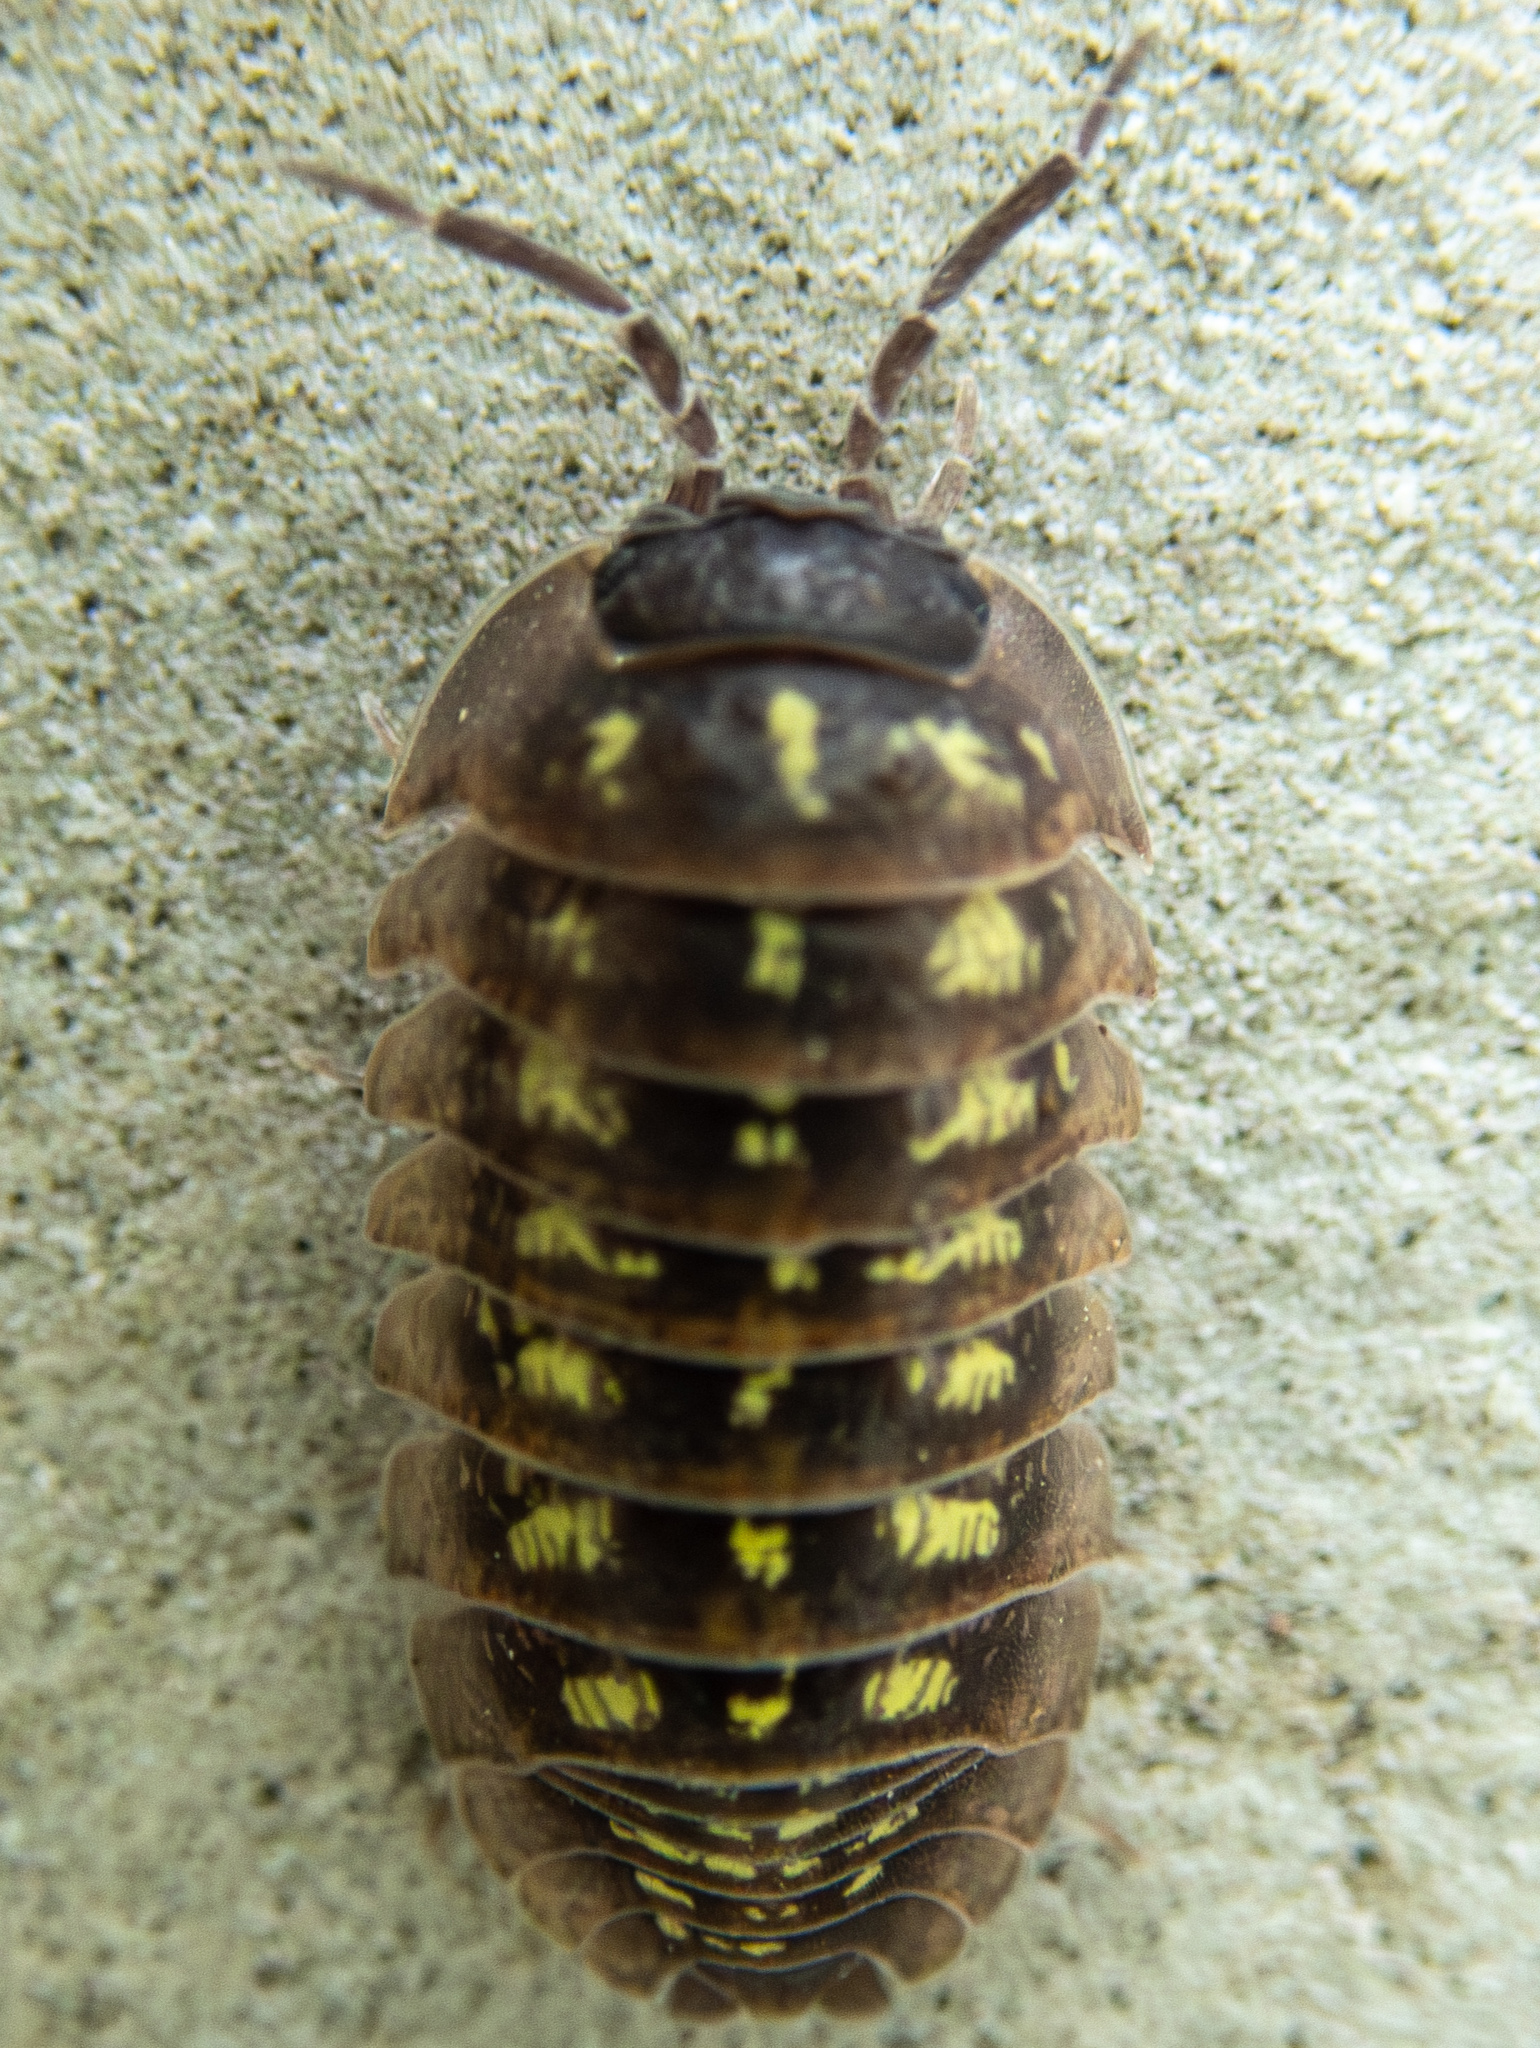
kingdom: Animalia
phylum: Arthropoda
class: Malacostraca
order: Isopoda
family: Armadillidiidae
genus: Armadillidium
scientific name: Armadillidium depressum
